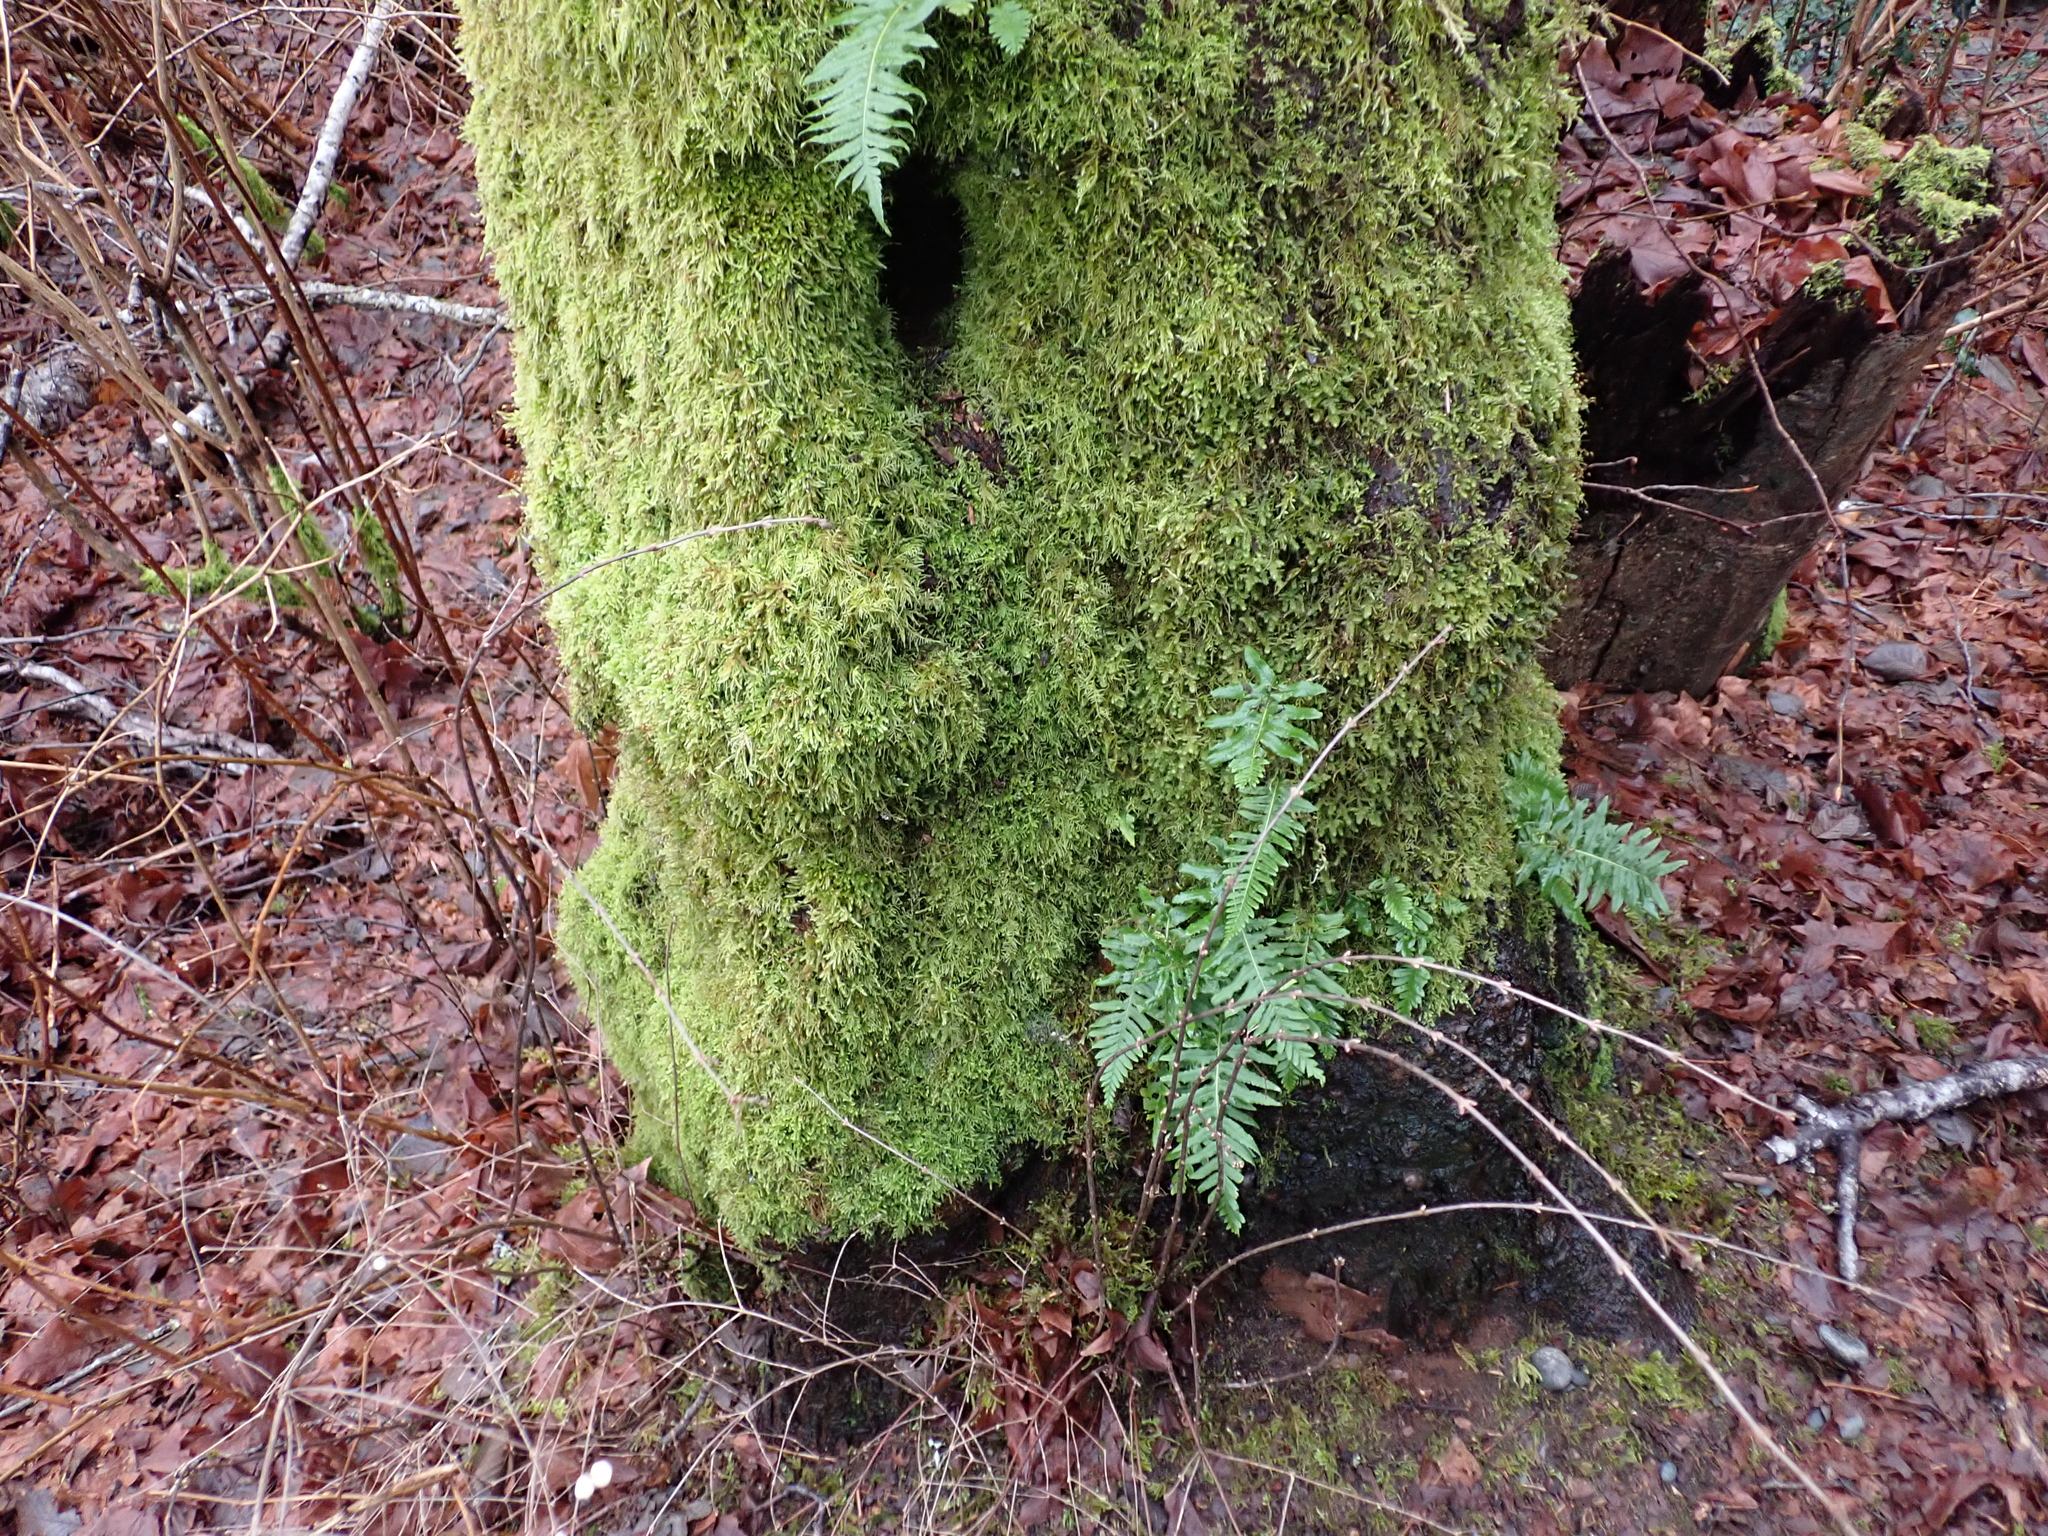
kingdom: Plantae
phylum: Bryophyta
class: Bryopsida
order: Hypnales
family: Neckeraceae
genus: Metaneckera
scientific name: Metaneckera menziesii
